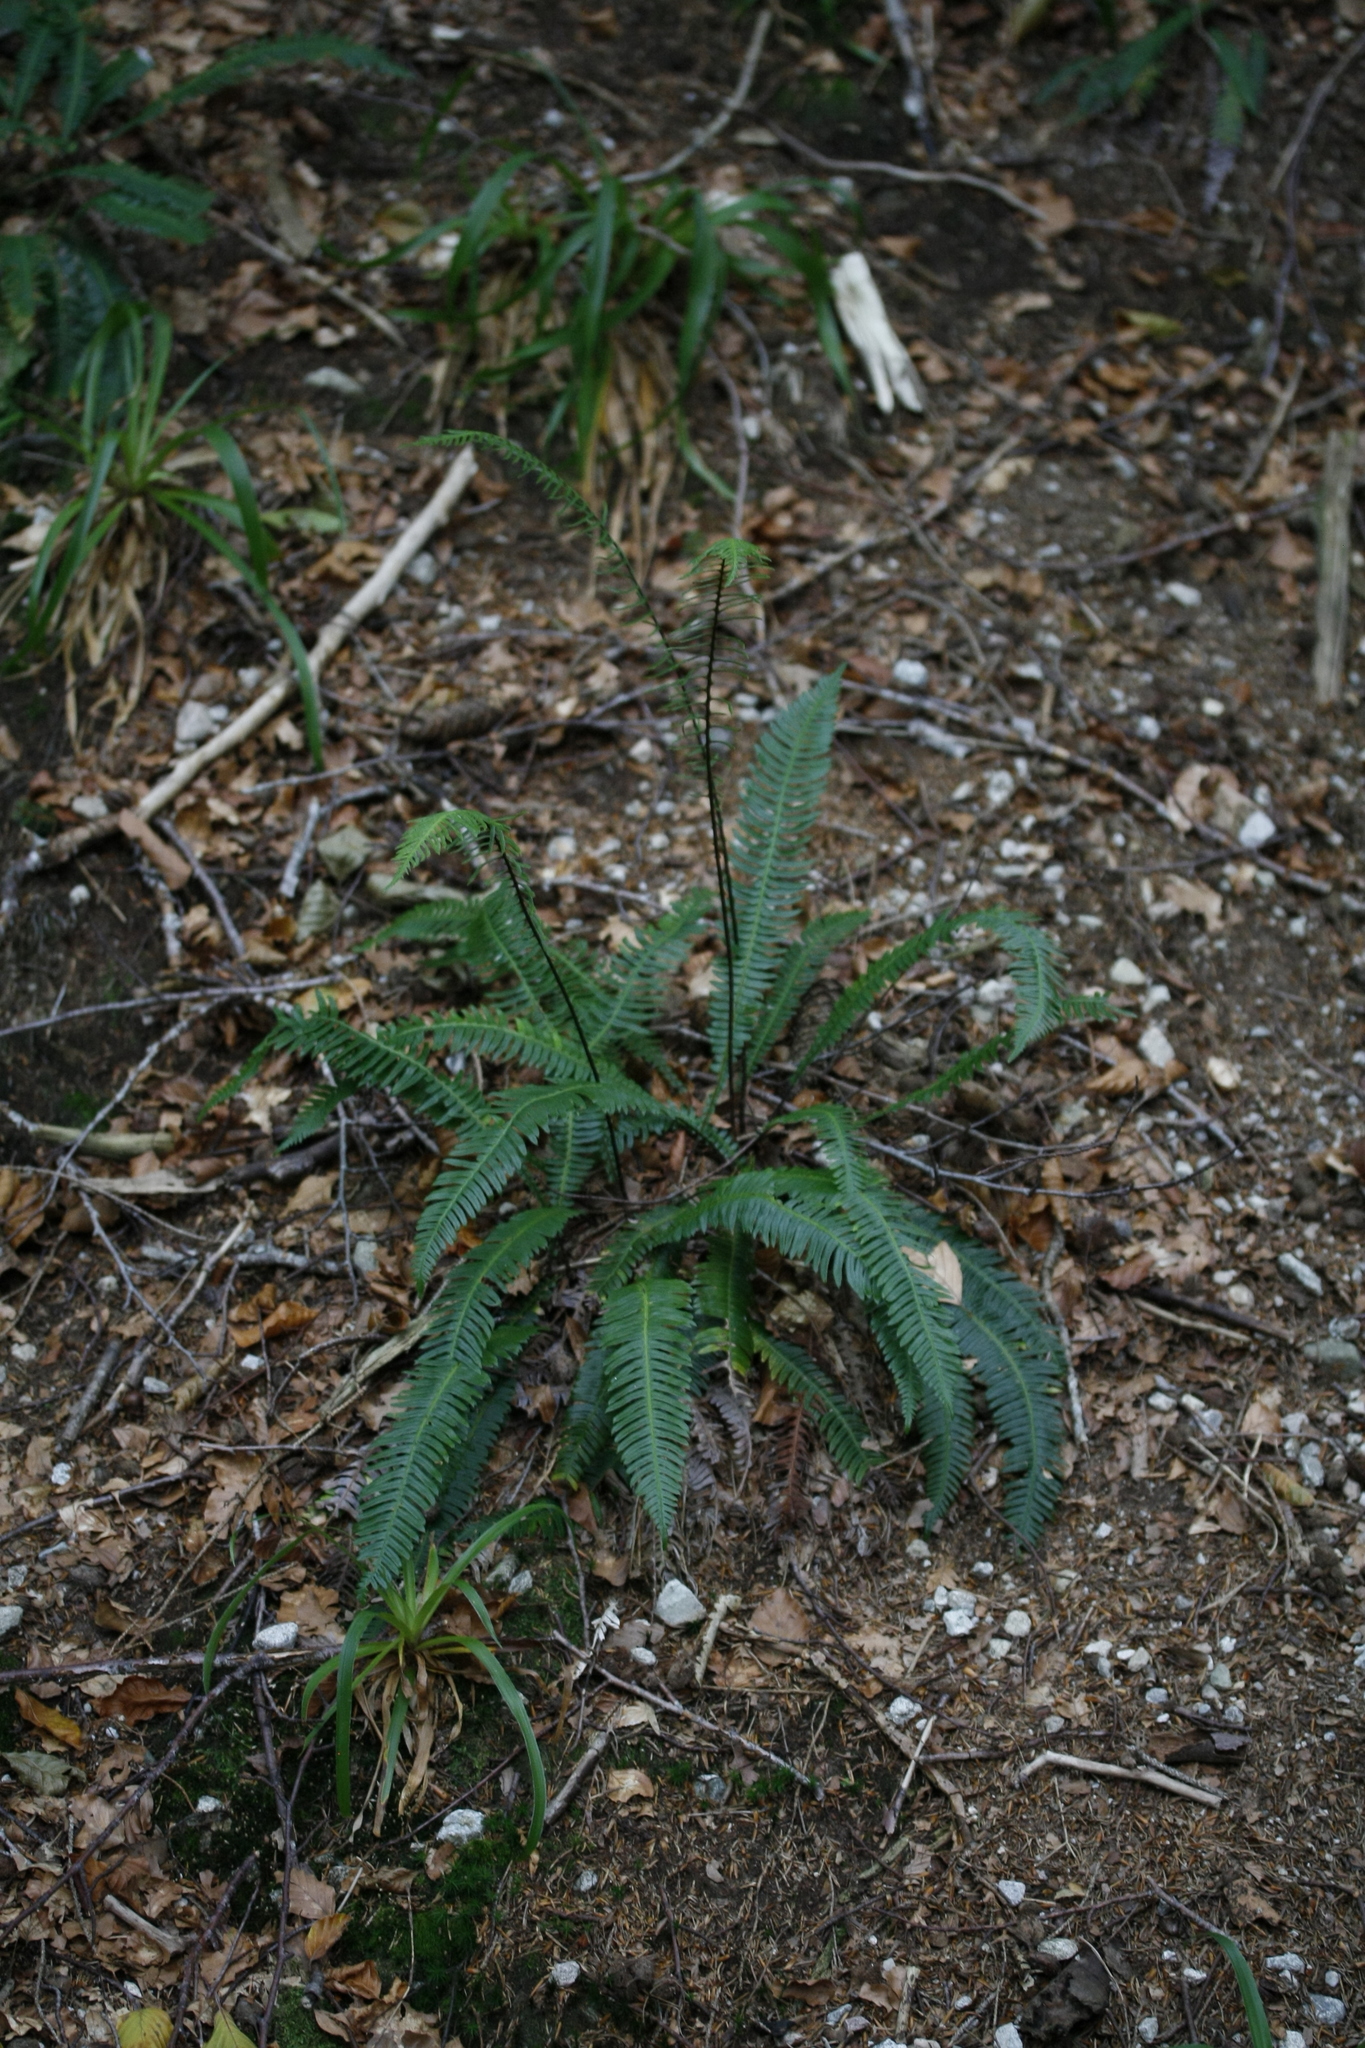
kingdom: Plantae
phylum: Tracheophyta
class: Polypodiopsida
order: Polypodiales
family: Blechnaceae
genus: Struthiopteris
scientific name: Struthiopteris spicant
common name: Deer fern
